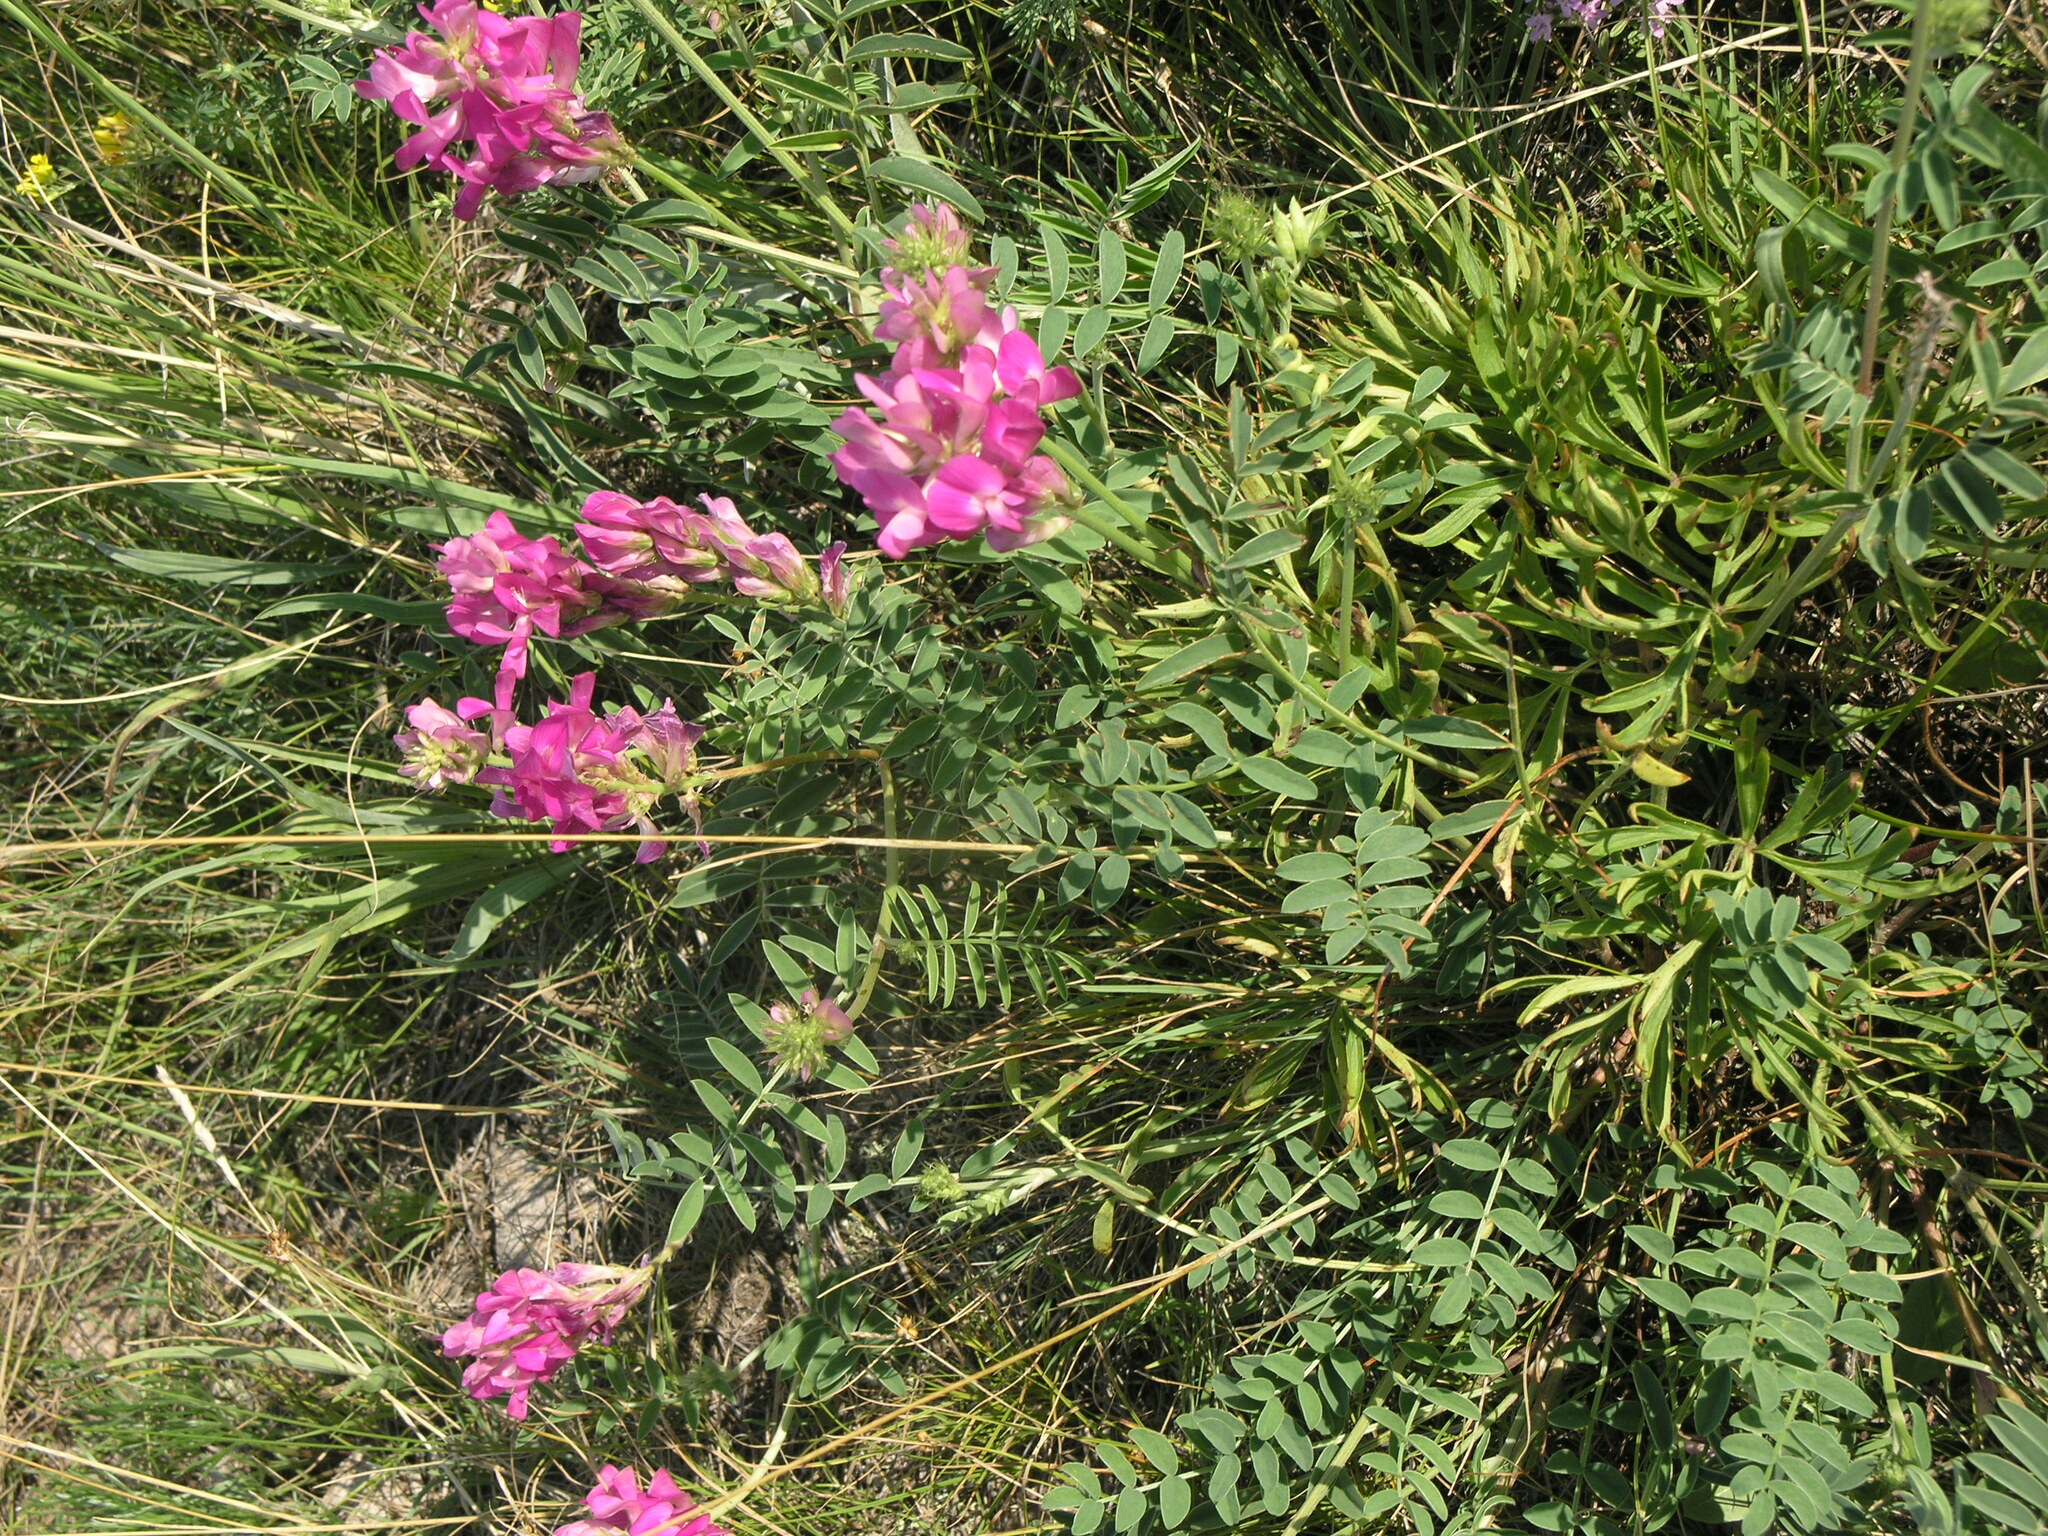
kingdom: Plantae
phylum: Tracheophyta
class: Magnoliopsida
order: Fabales
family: Fabaceae
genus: Hedysarum
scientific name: Hedysarum gmelinii
